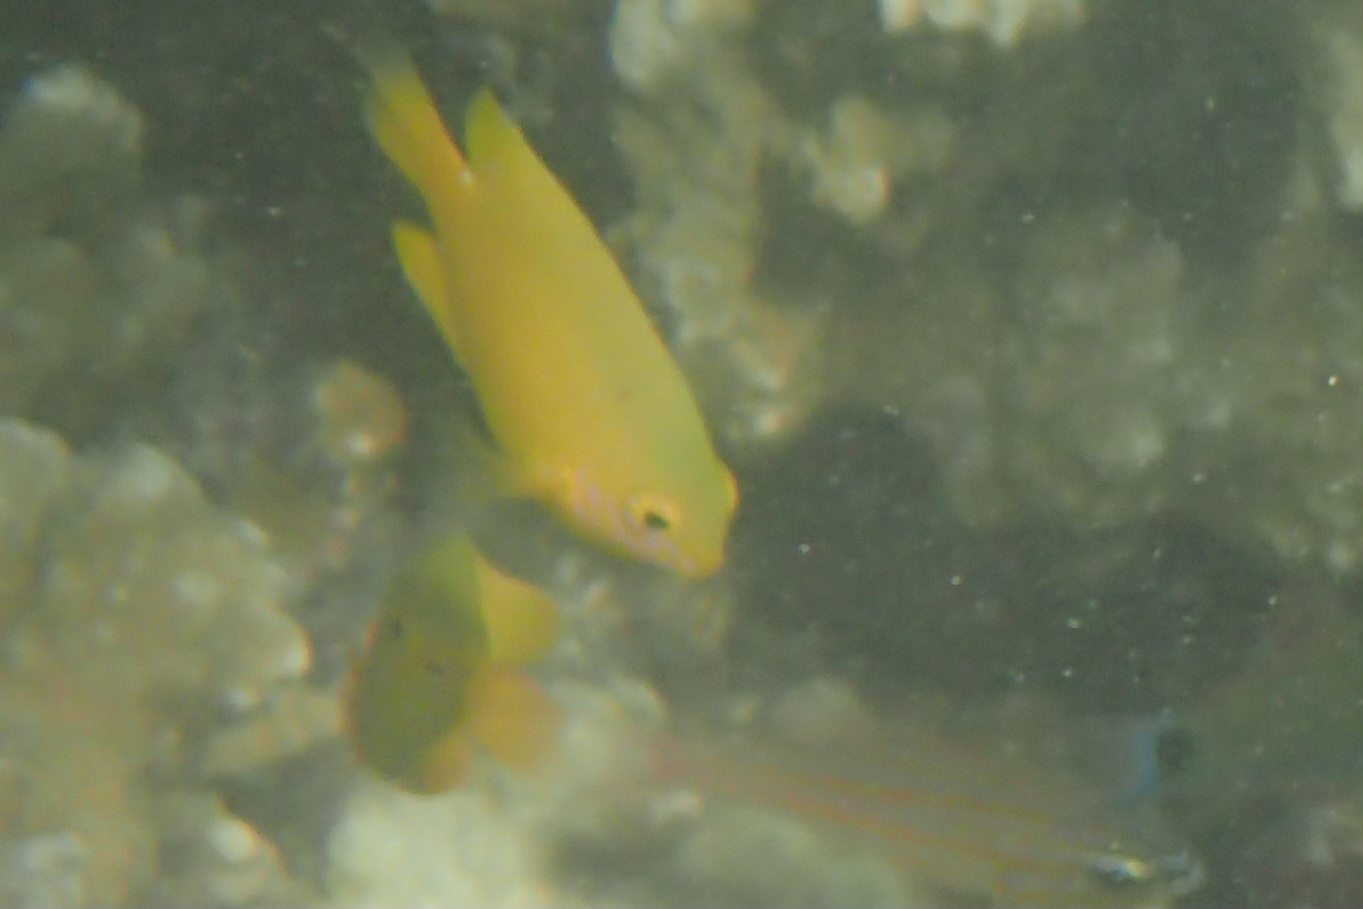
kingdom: Animalia
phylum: Chordata
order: Perciformes
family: Pomacentridae
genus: Pomacentrus
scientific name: Pomacentrus moluccensis
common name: Lemon damsel
